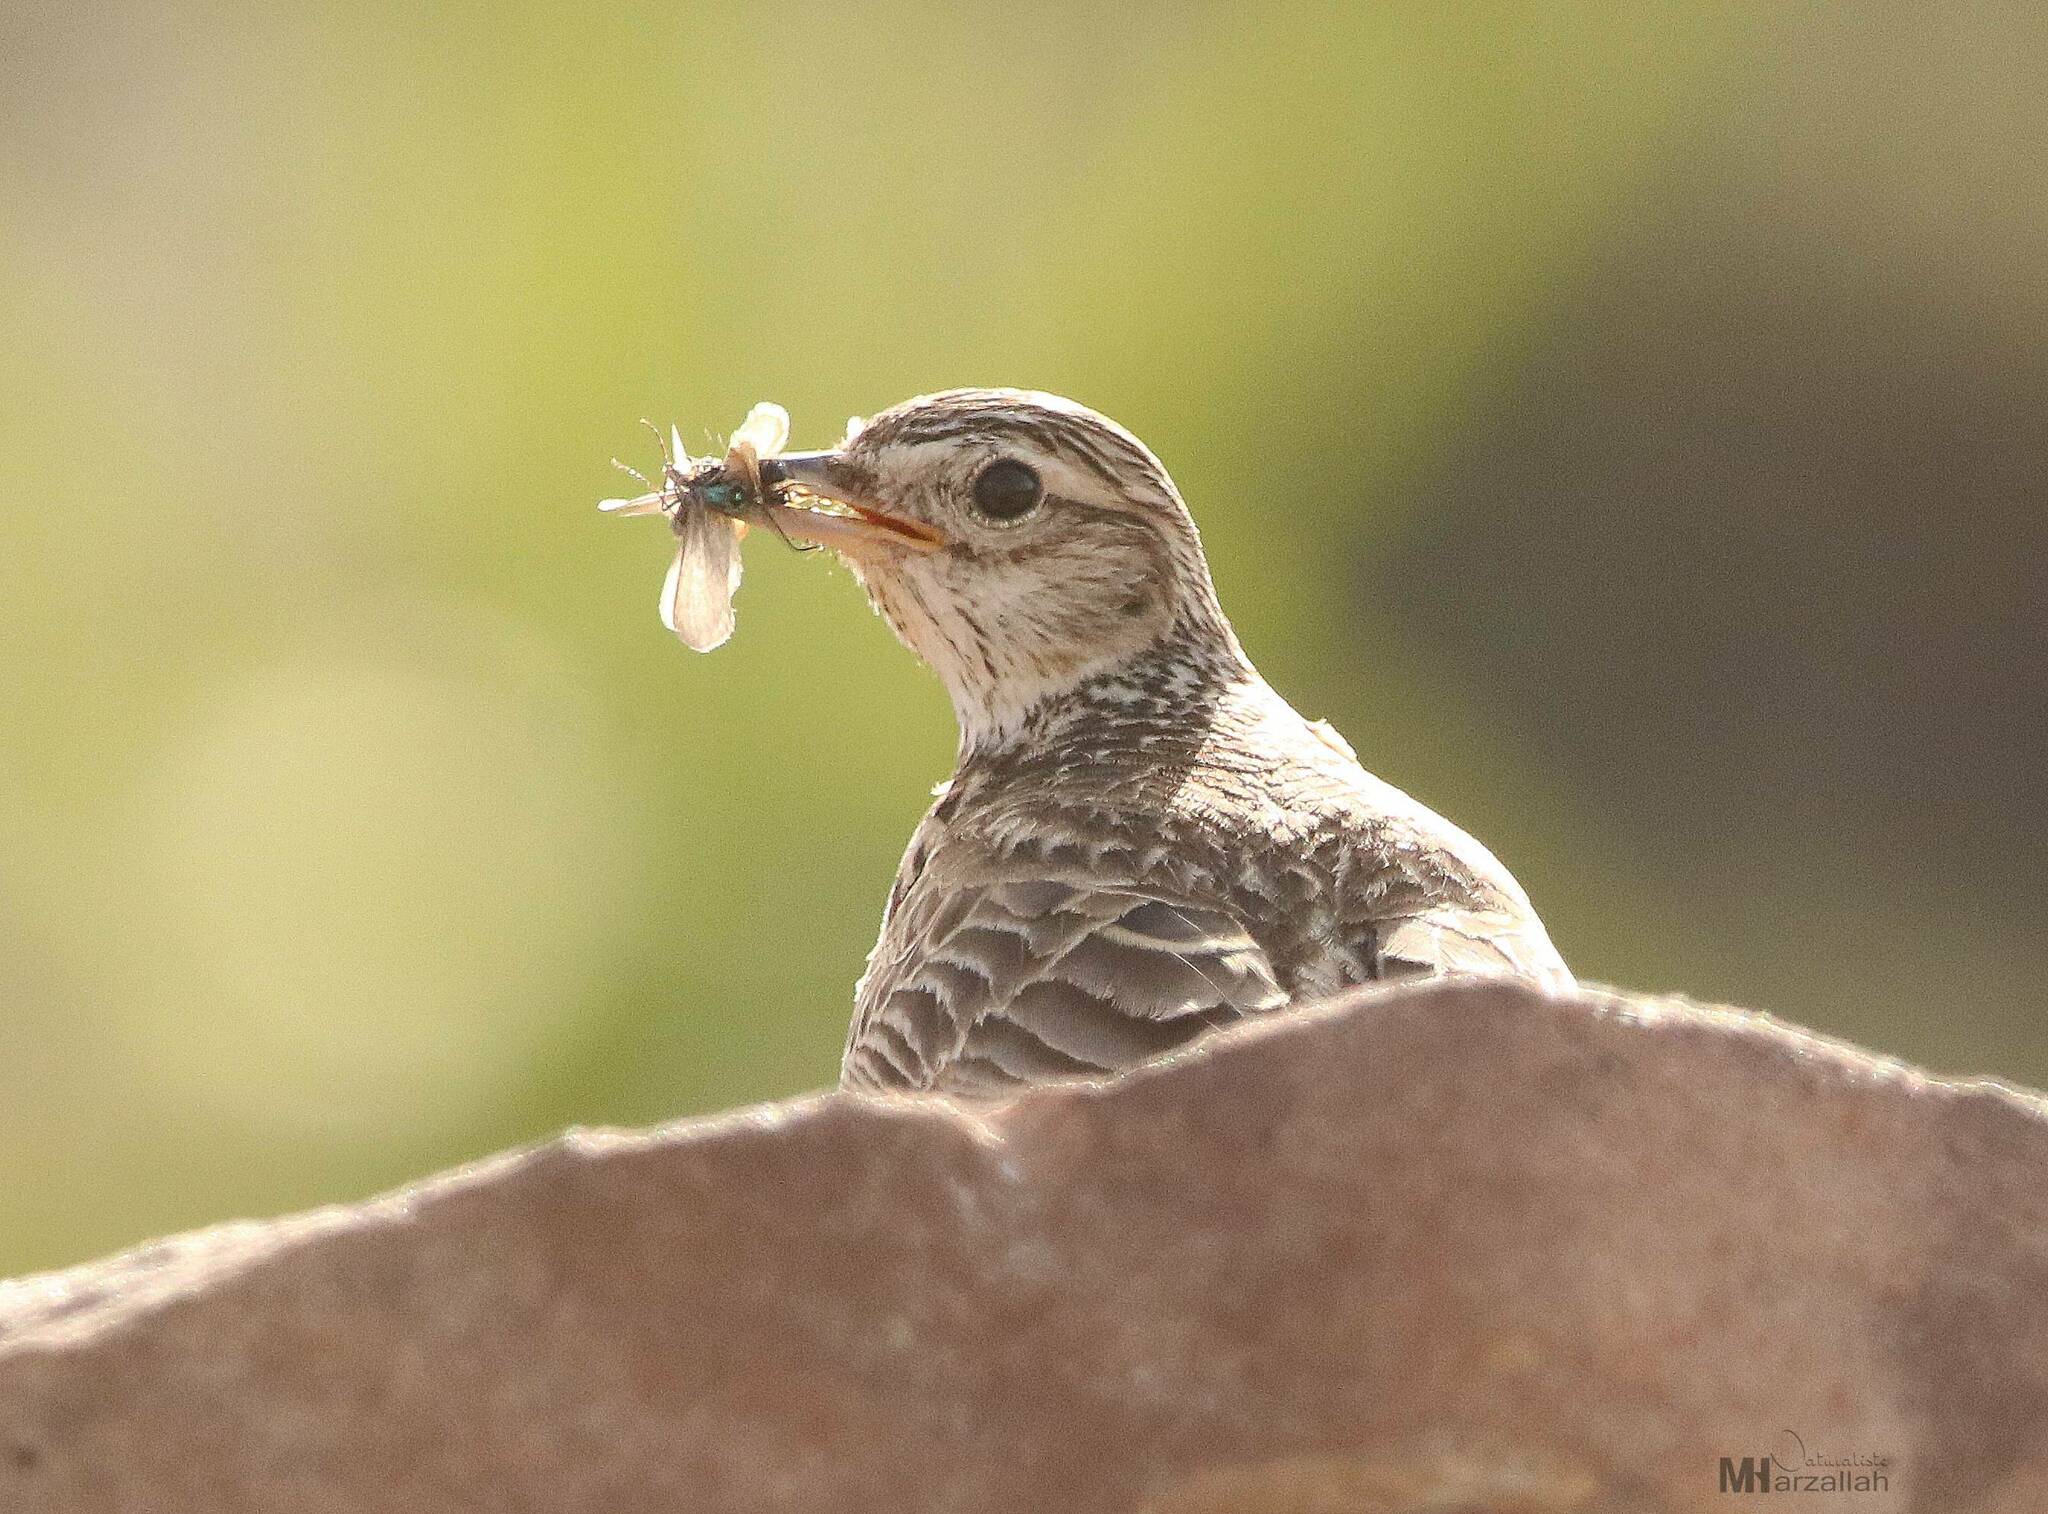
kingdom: Animalia
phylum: Chordata
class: Aves
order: Passeriformes
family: Alaudidae
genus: Alauda
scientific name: Alauda arvensis
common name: Eurasian skylark
